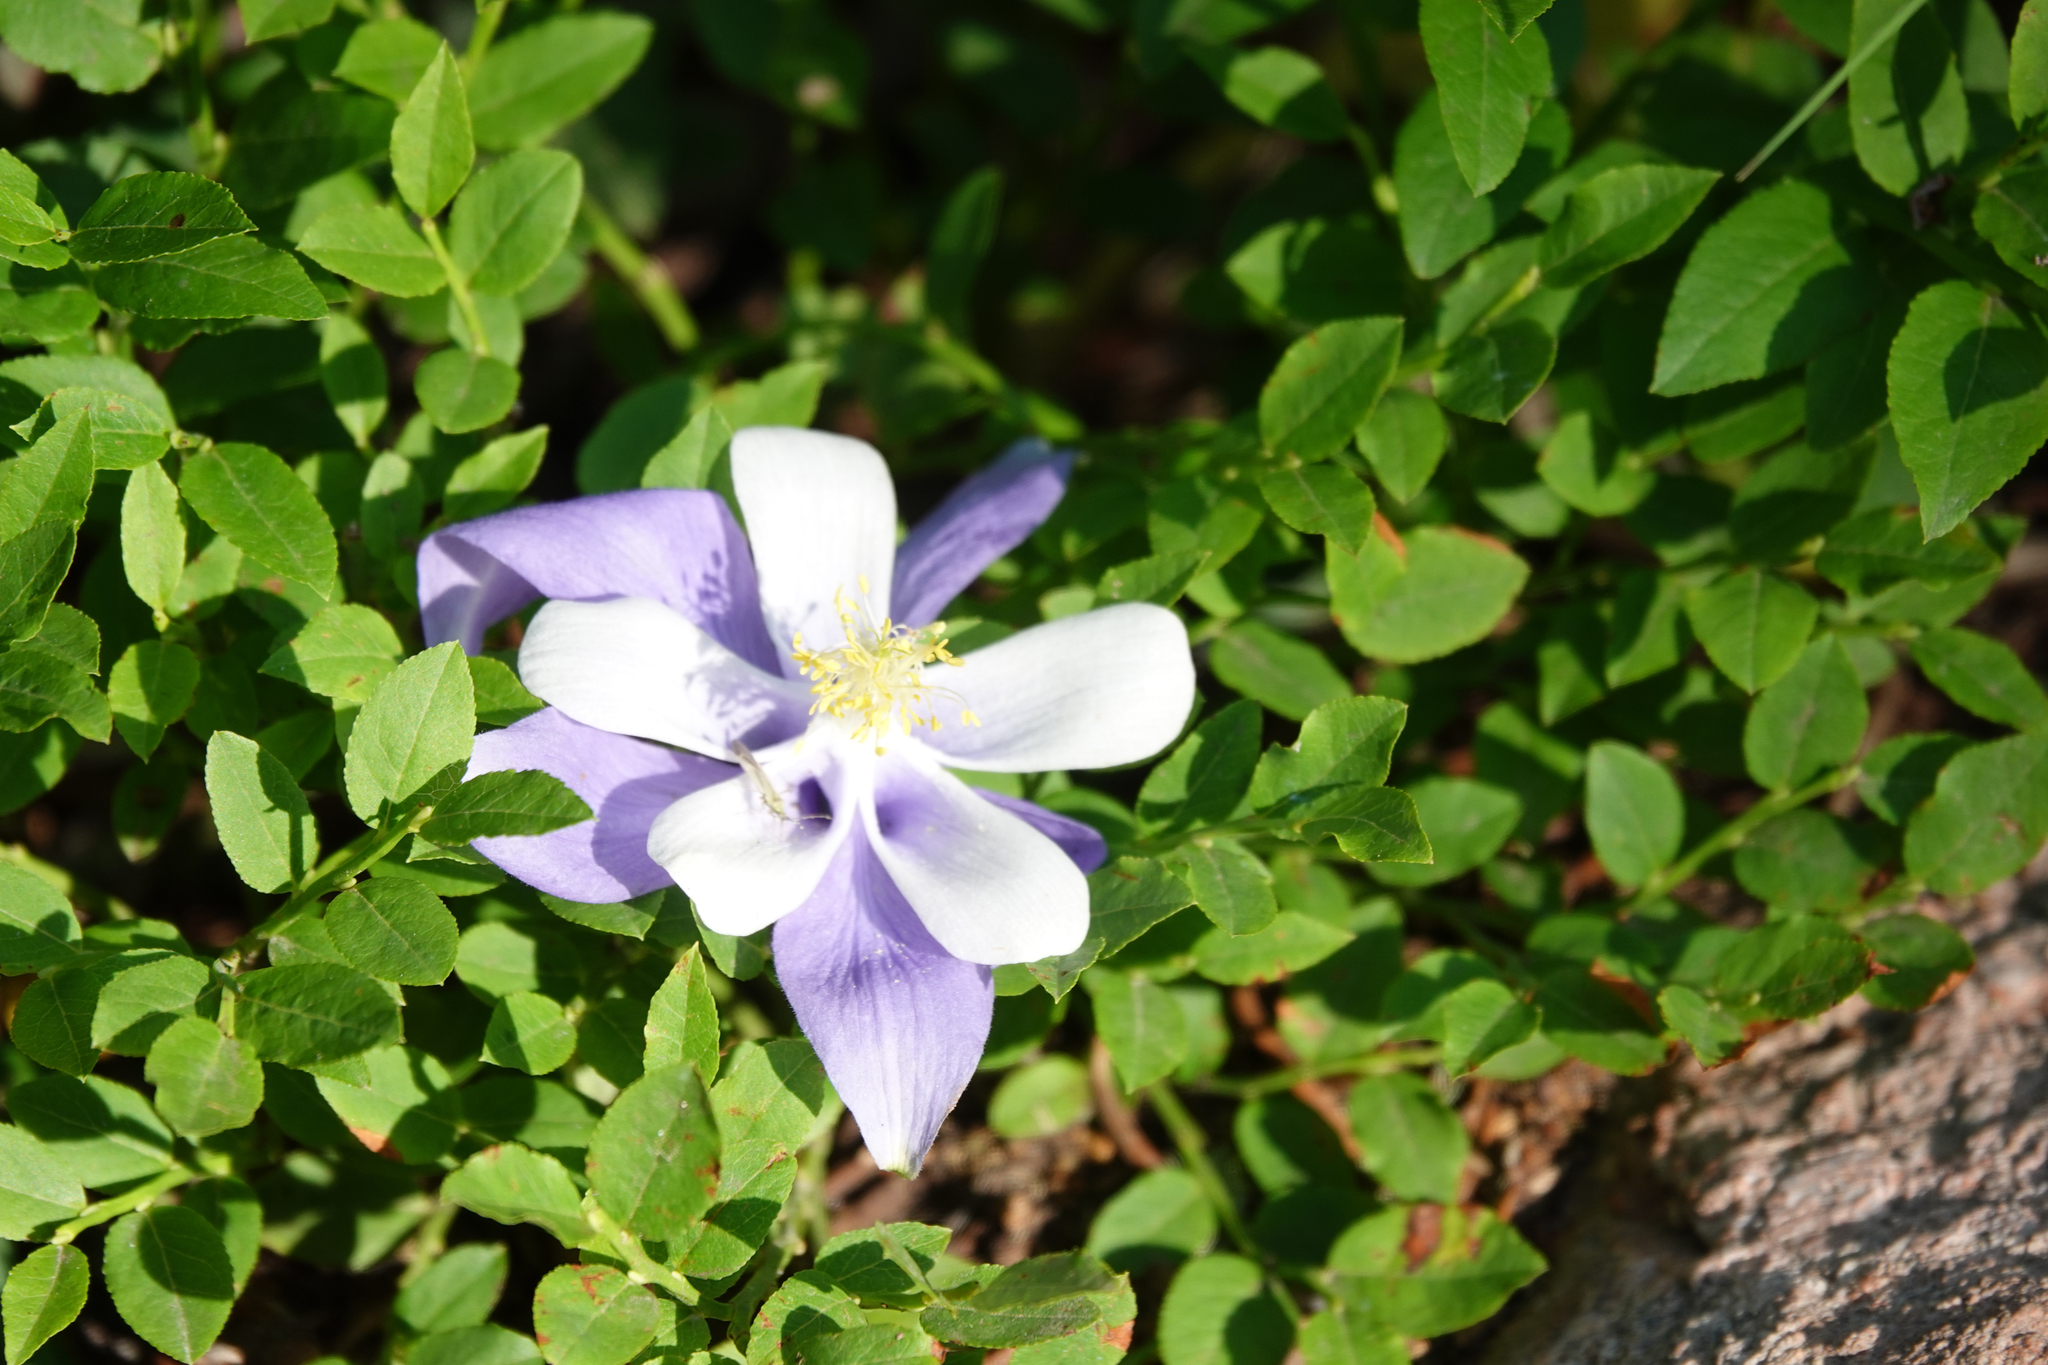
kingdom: Plantae
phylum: Tracheophyta
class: Magnoliopsida
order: Ranunculales
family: Ranunculaceae
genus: Aquilegia
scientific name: Aquilegia coerulea
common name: Rocky mountain columbine
